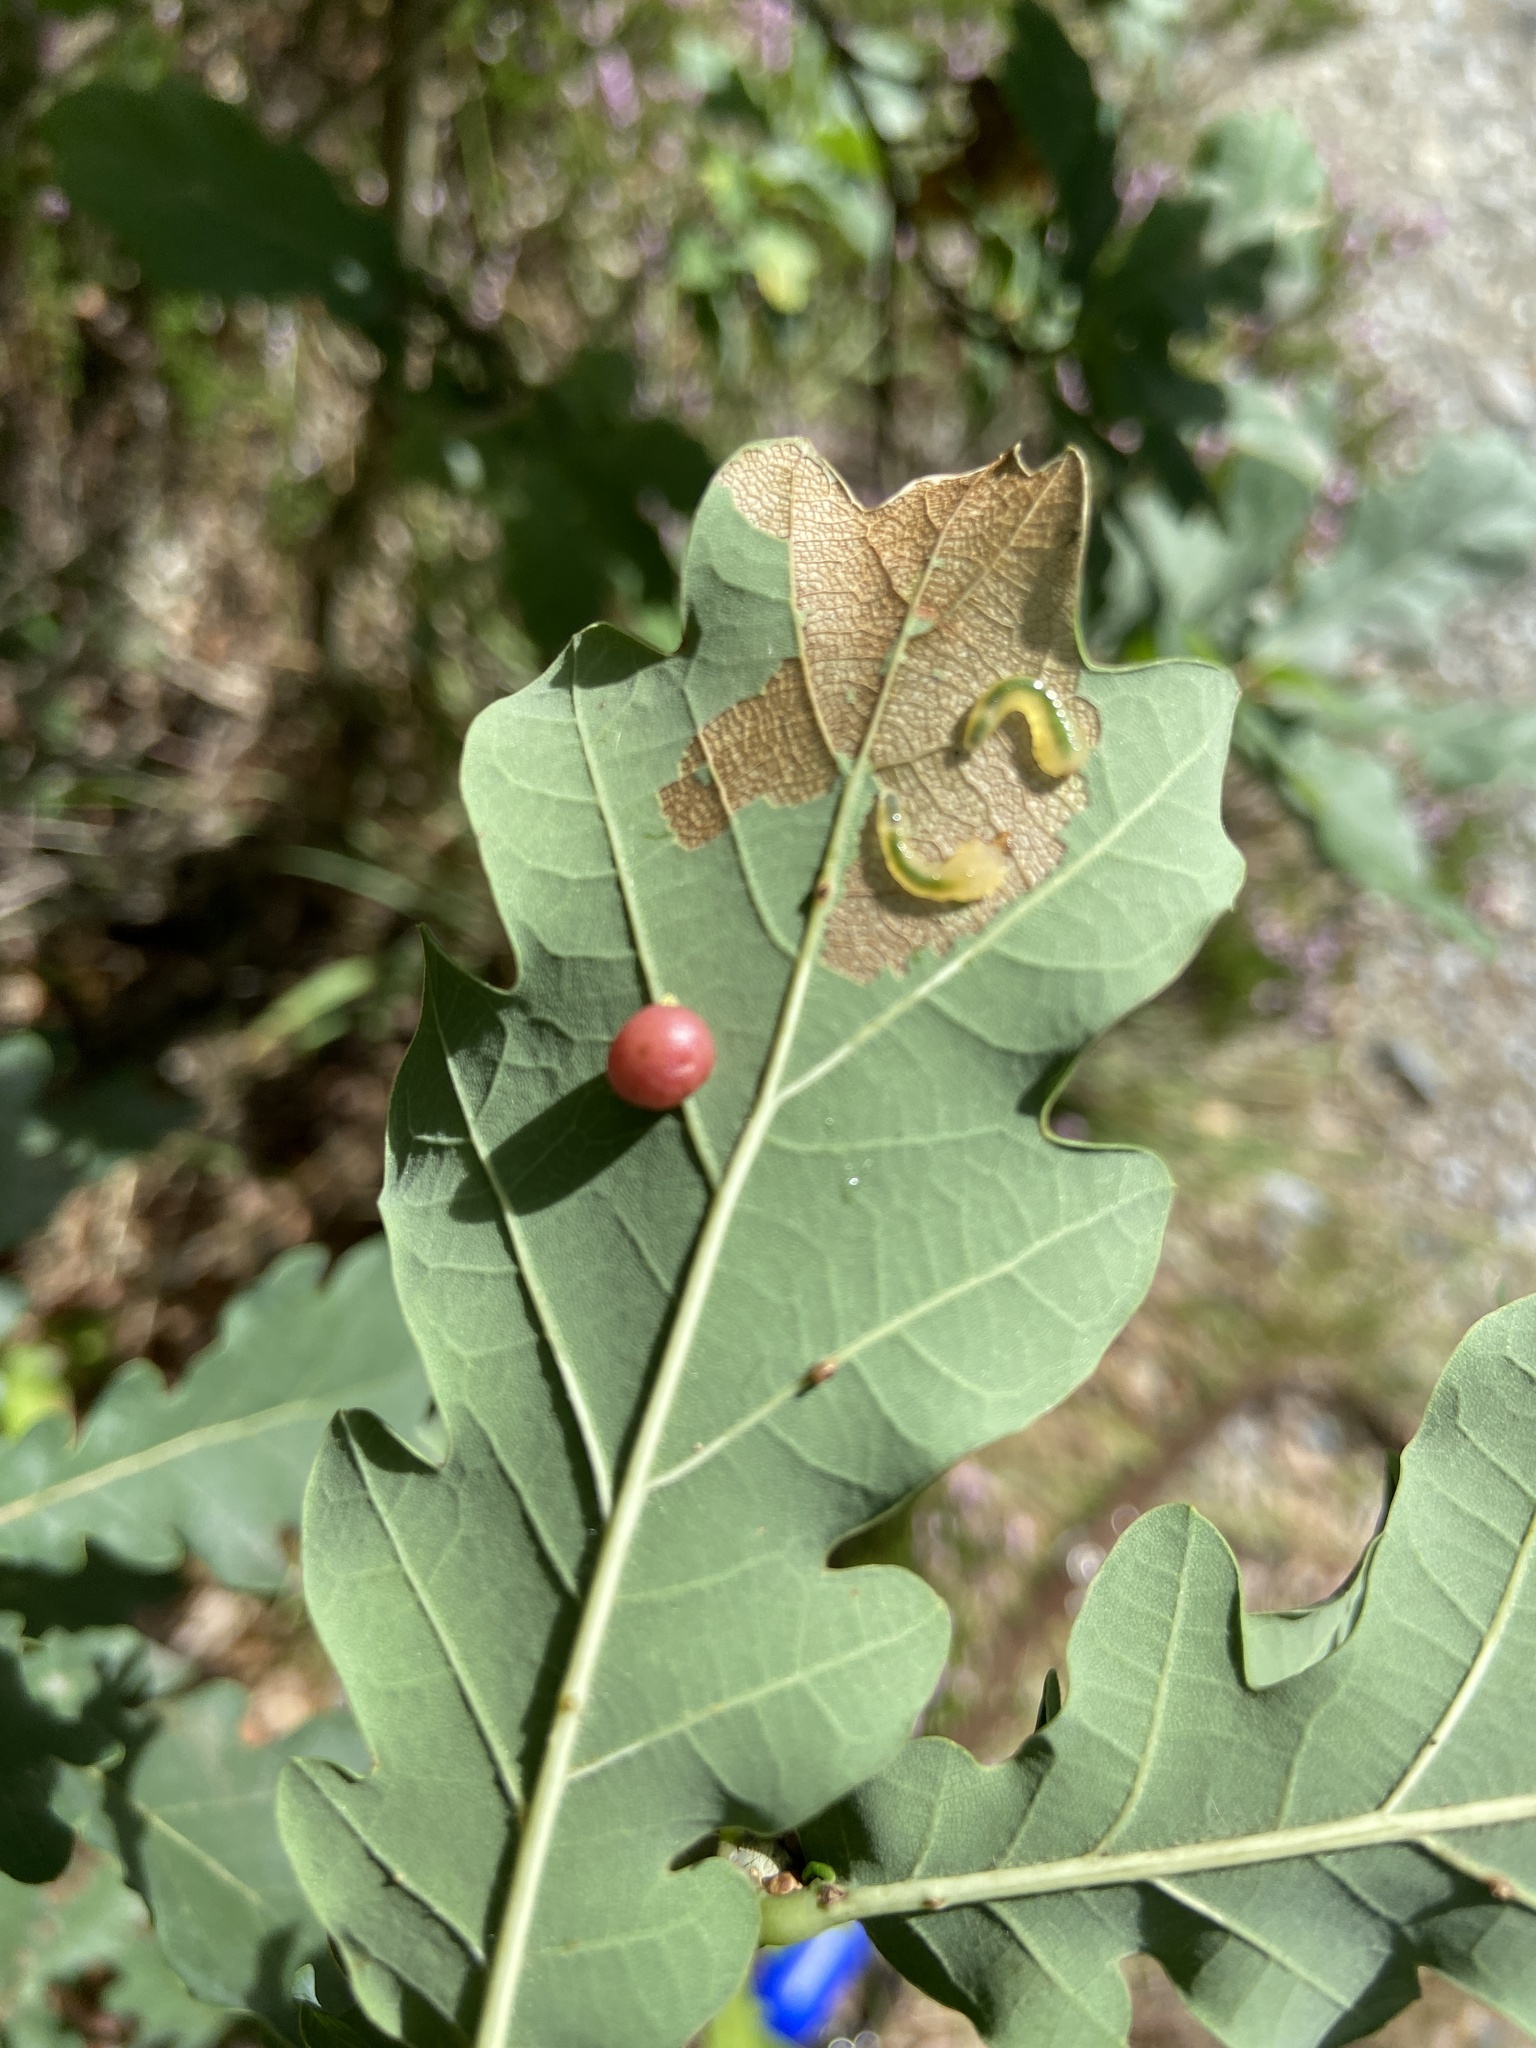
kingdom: Animalia
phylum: Arthropoda
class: Insecta
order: Hymenoptera
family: Cynipidae
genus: Cynips
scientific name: Cynips divisa
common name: Red currant gall
